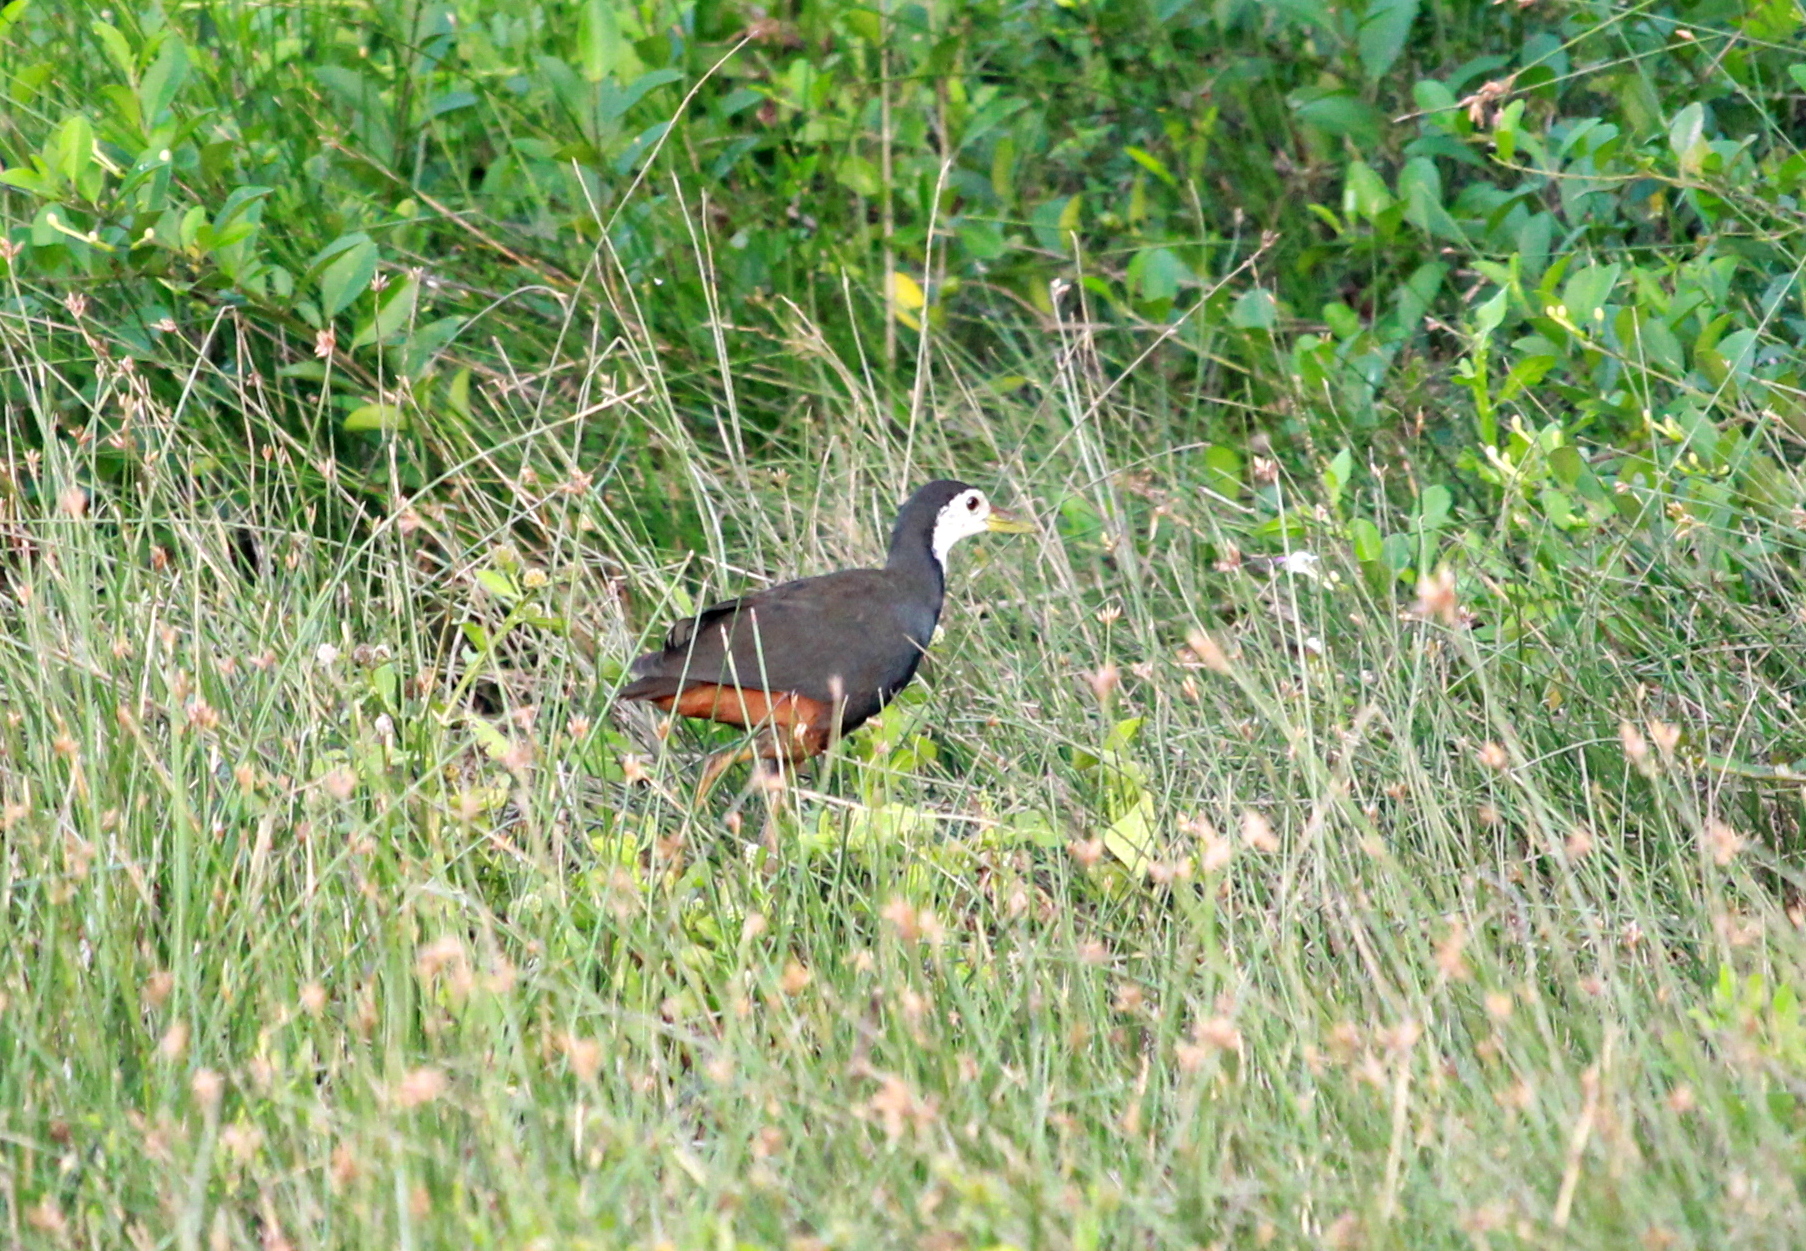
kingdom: Animalia
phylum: Chordata
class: Aves
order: Gruiformes
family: Rallidae
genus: Amaurornis
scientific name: Amaurornis phoenicurus
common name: White-breasted waterhen
